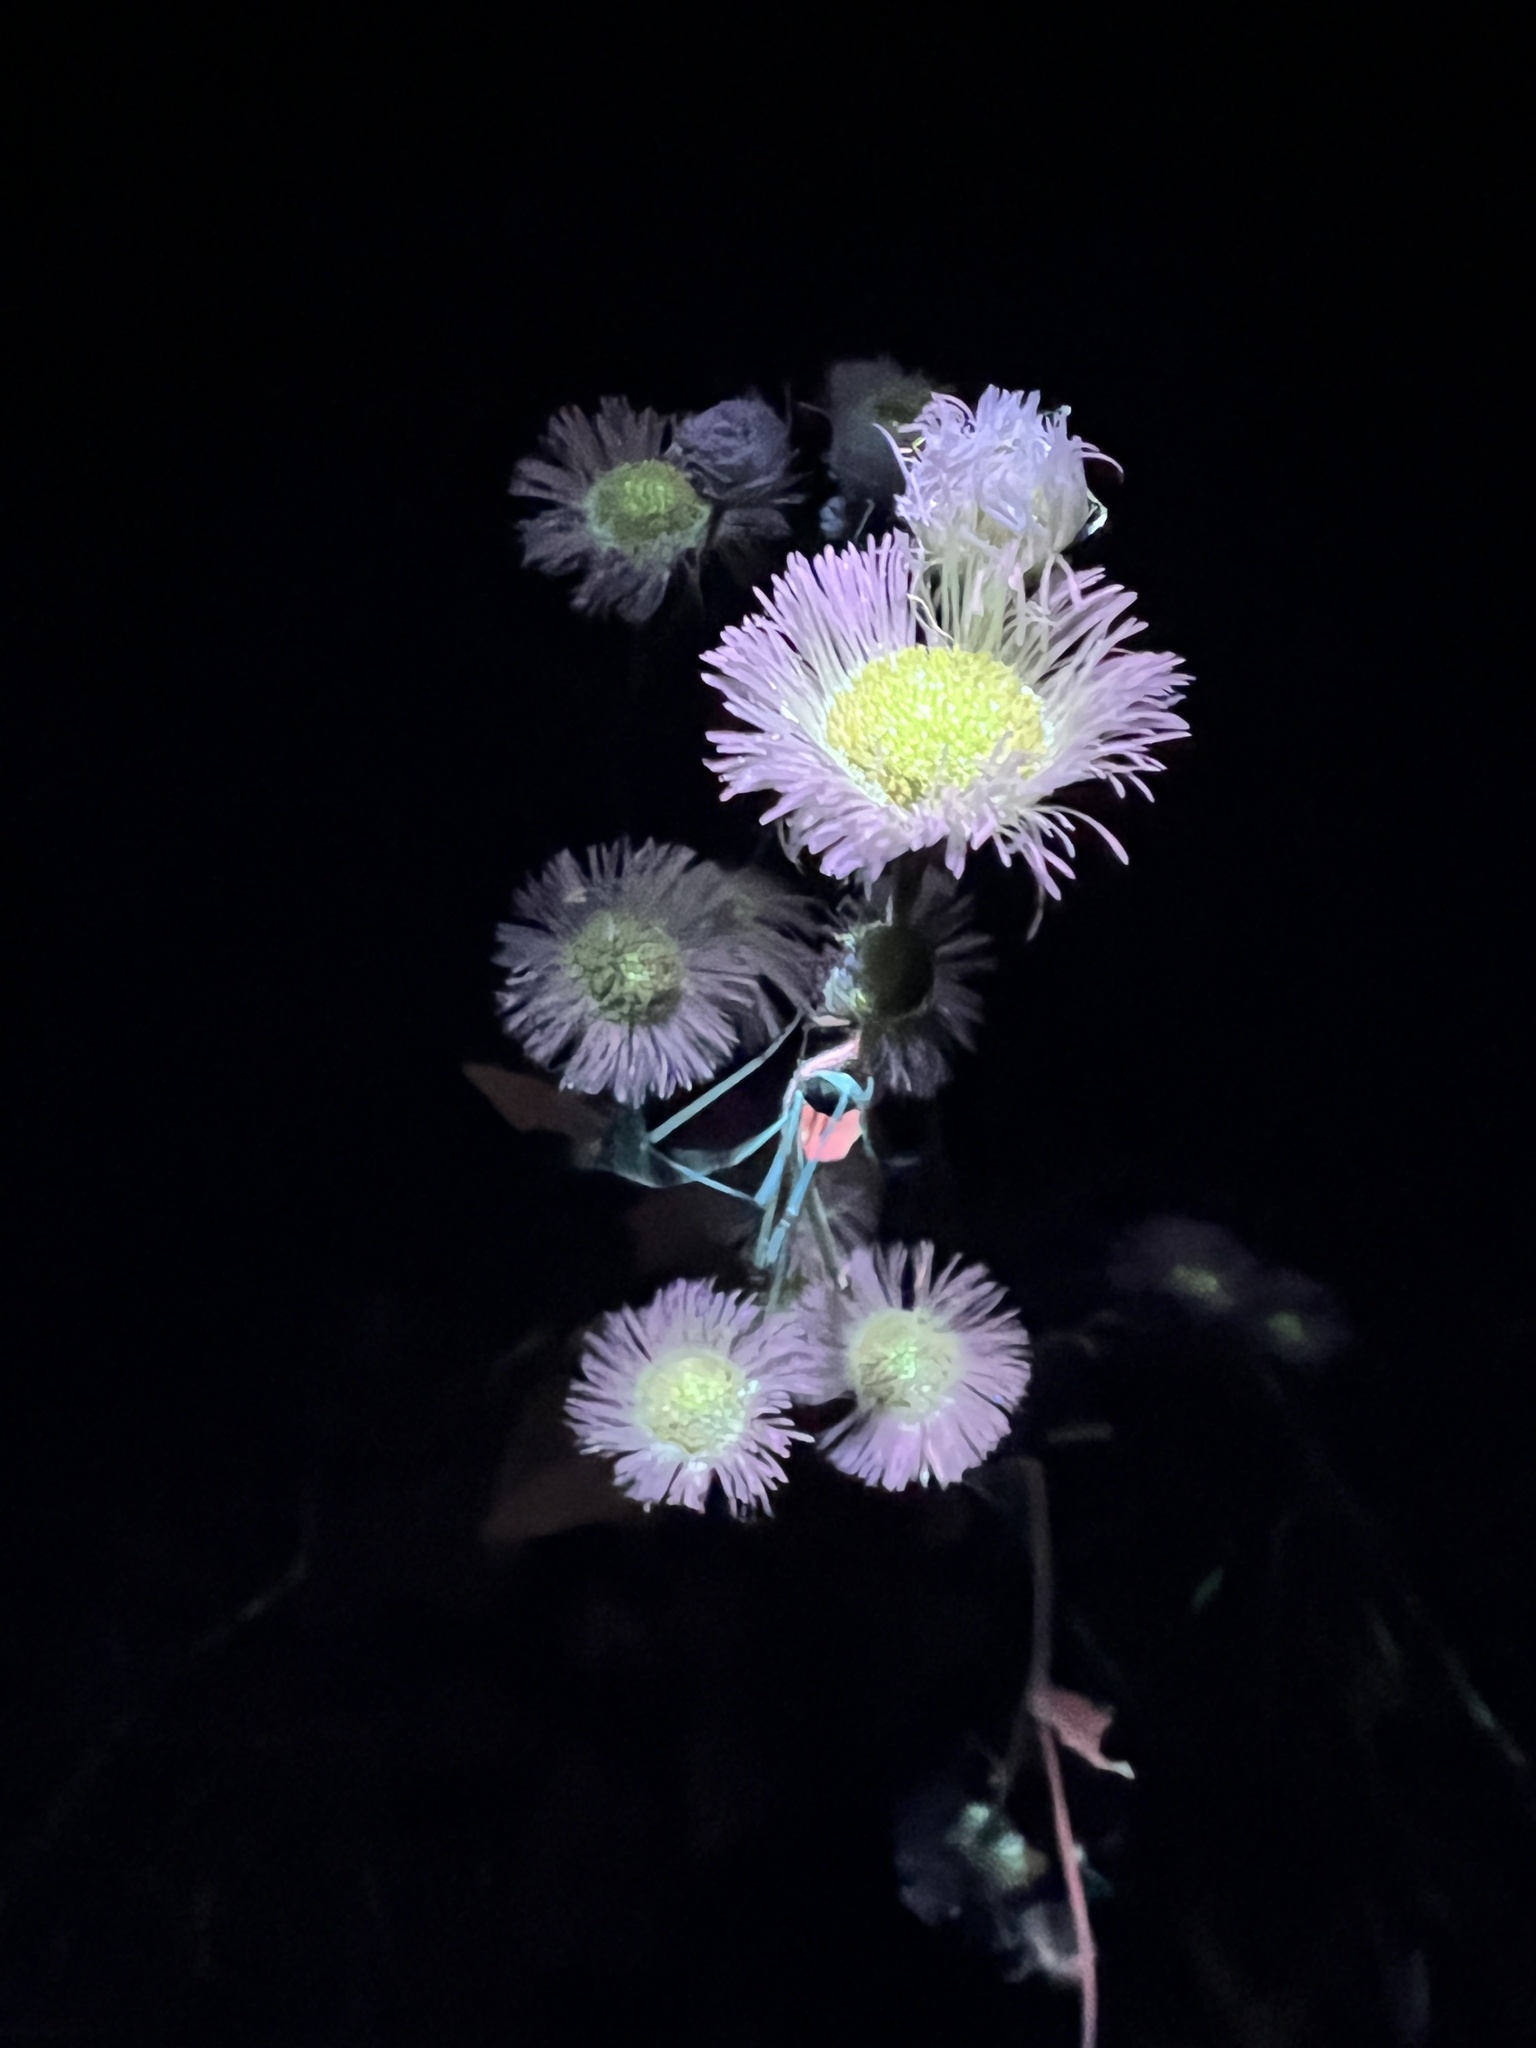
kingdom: Plantae
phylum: Tracheophyta
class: Magnoliopsida
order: Asterales
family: Asteraceae
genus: Erigeron
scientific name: Erigeron philadelphicus
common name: Robin's-plantain
